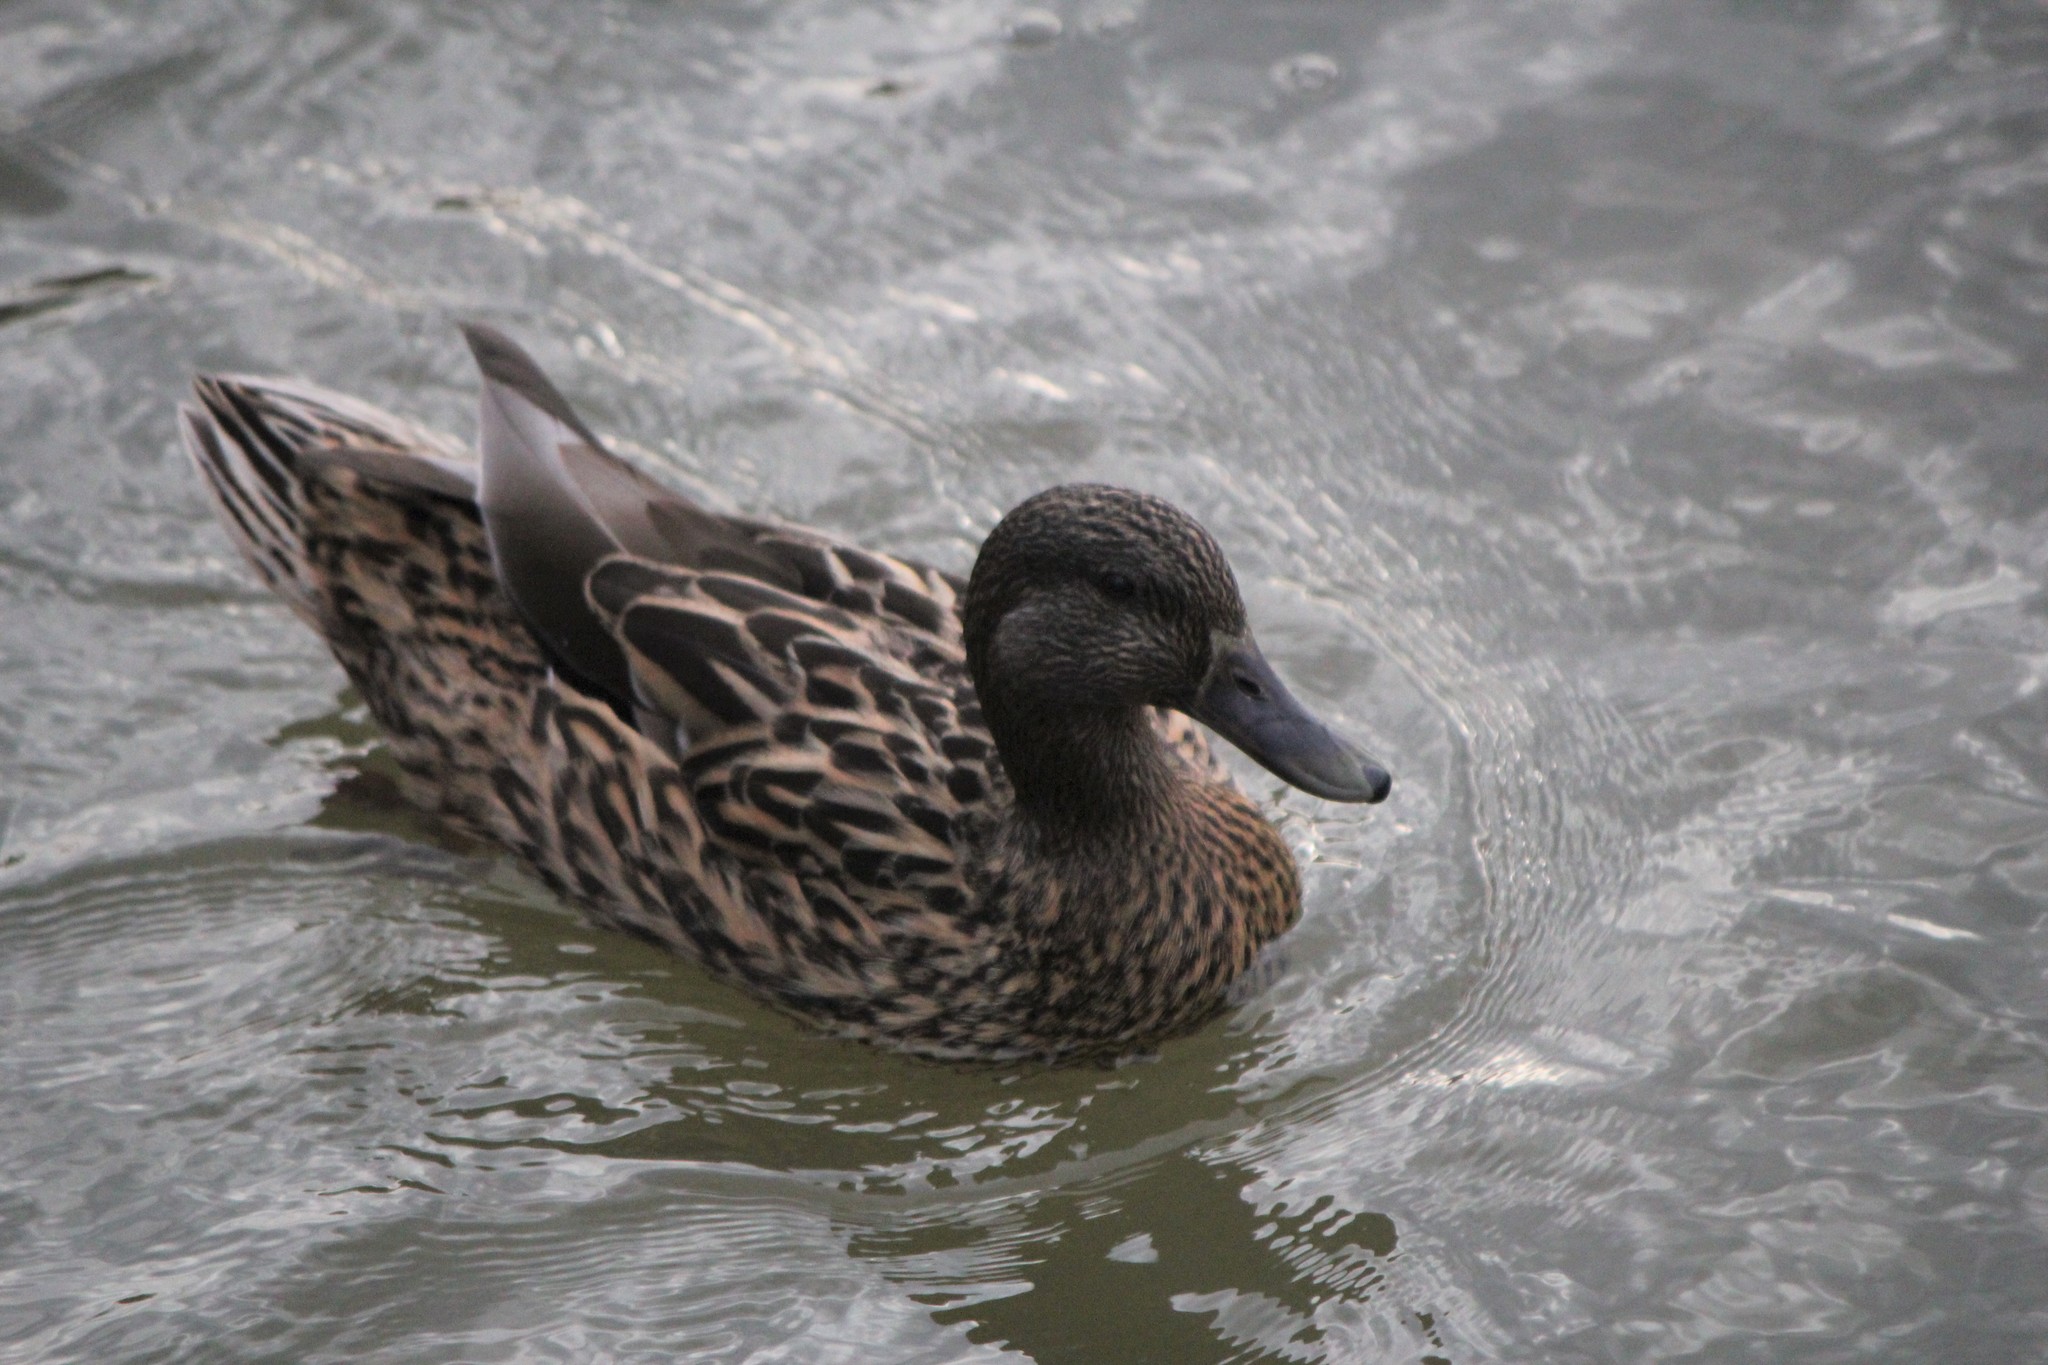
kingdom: Animalia
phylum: Chordata
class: Aves
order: Anseriformes
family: Anatidae
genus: Anas
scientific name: Anas
